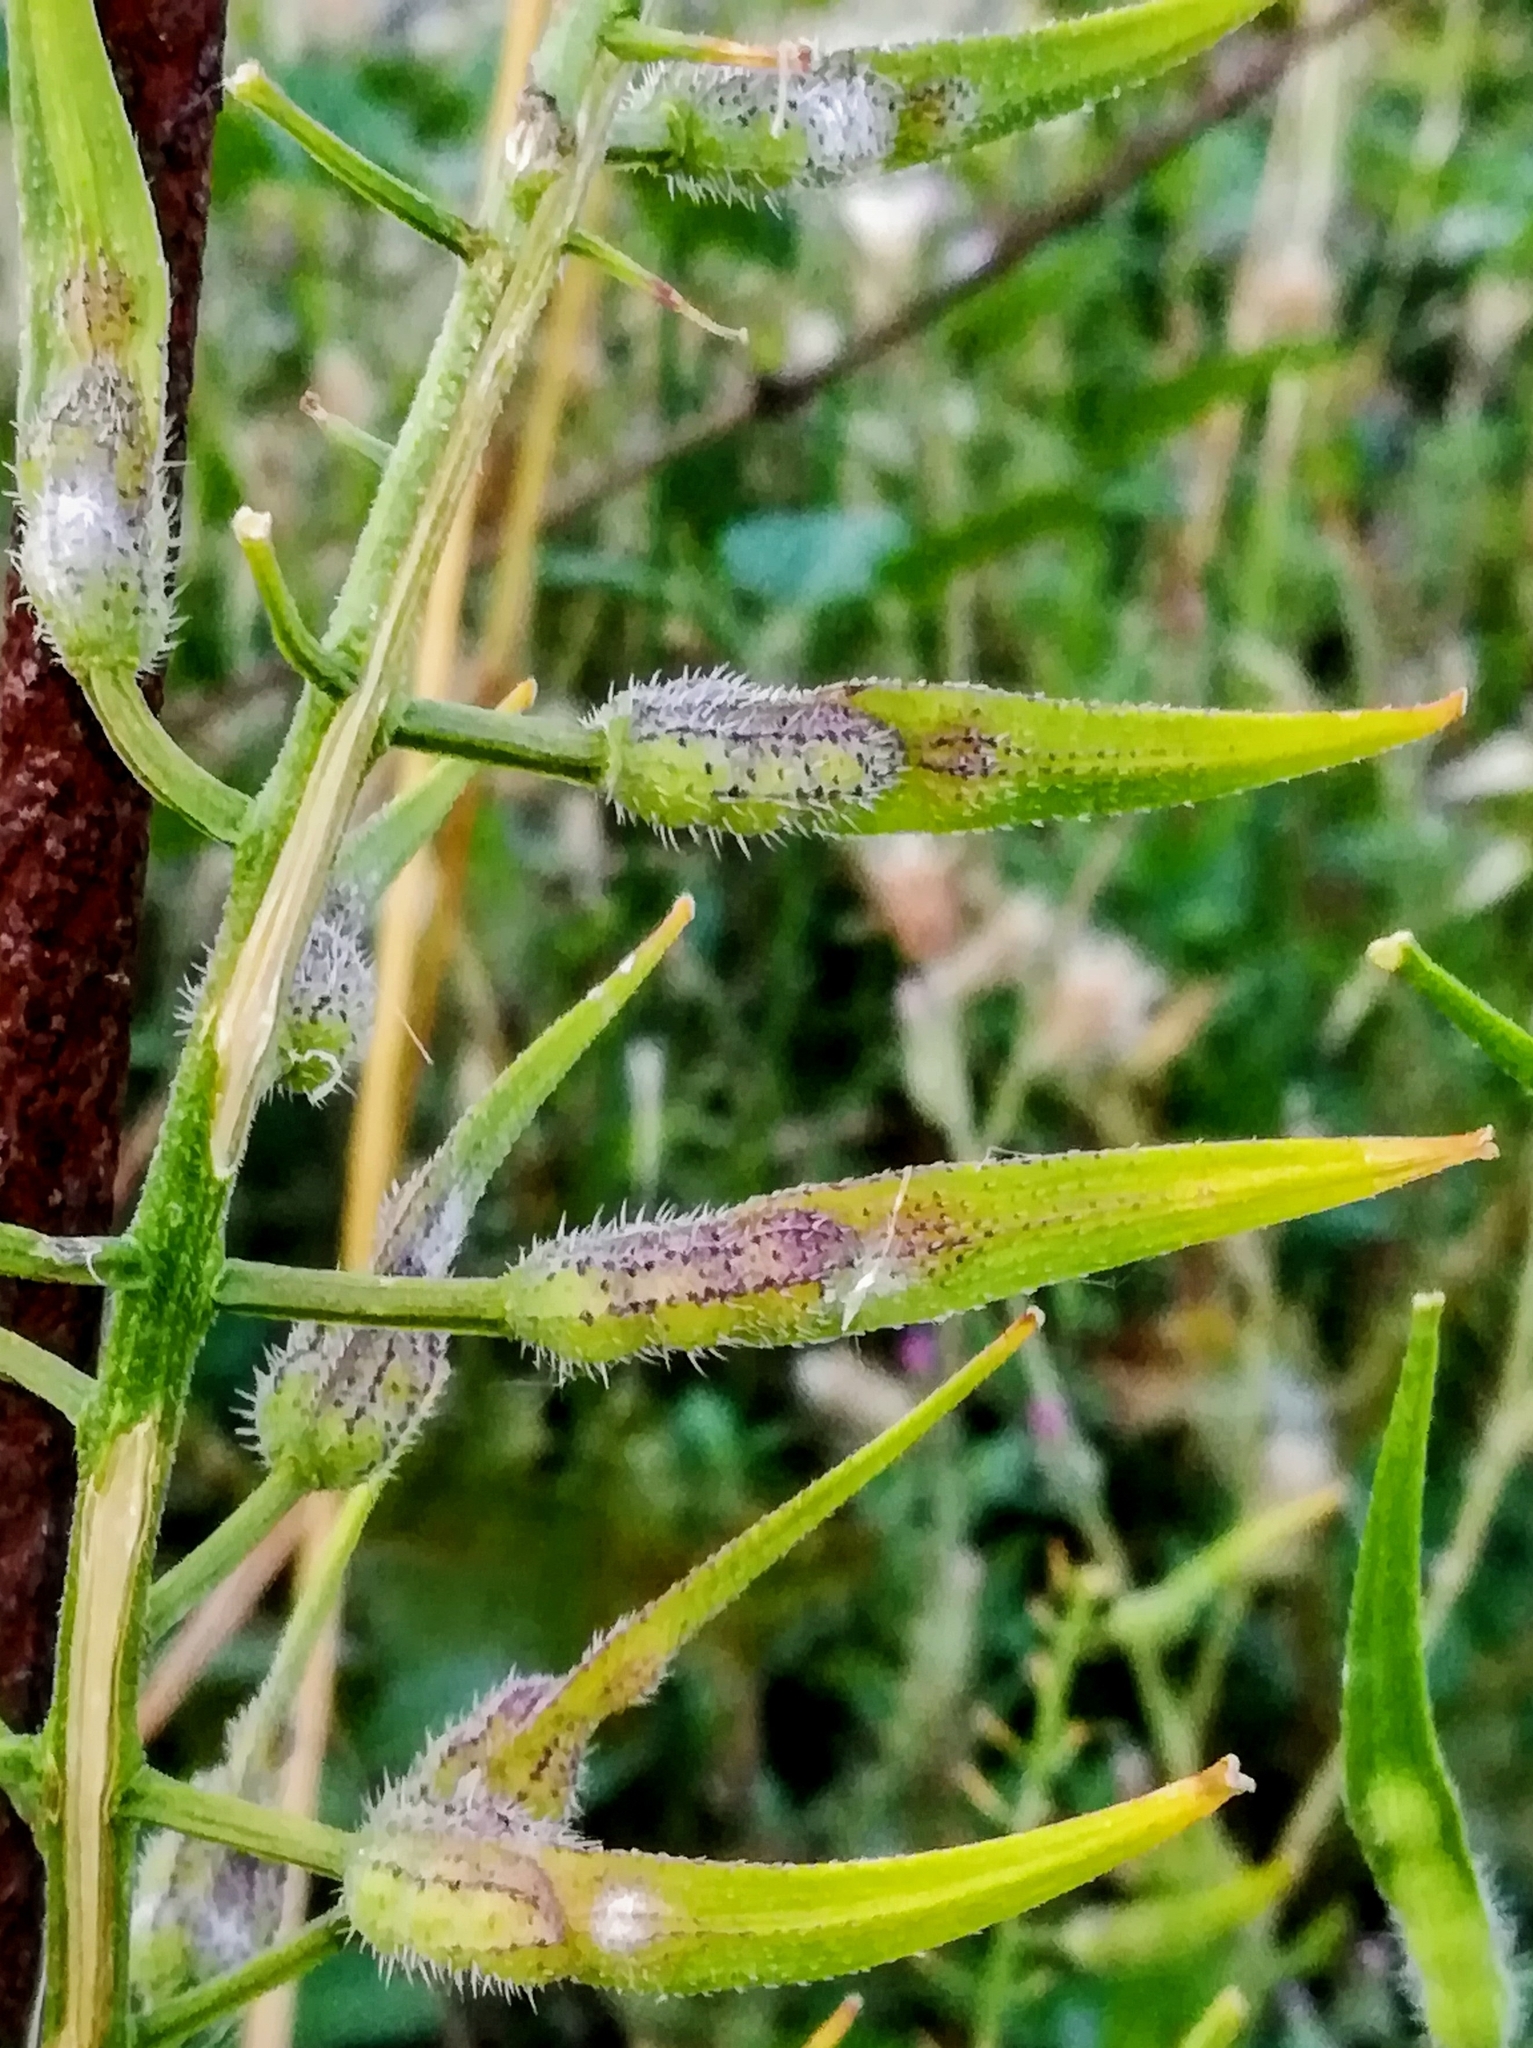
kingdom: Plantae
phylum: Tracheophyta
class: Magnoliopsida
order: Brassicales
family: Brassicaceae
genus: Sinapis
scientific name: Sinapis alba
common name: White mustard
